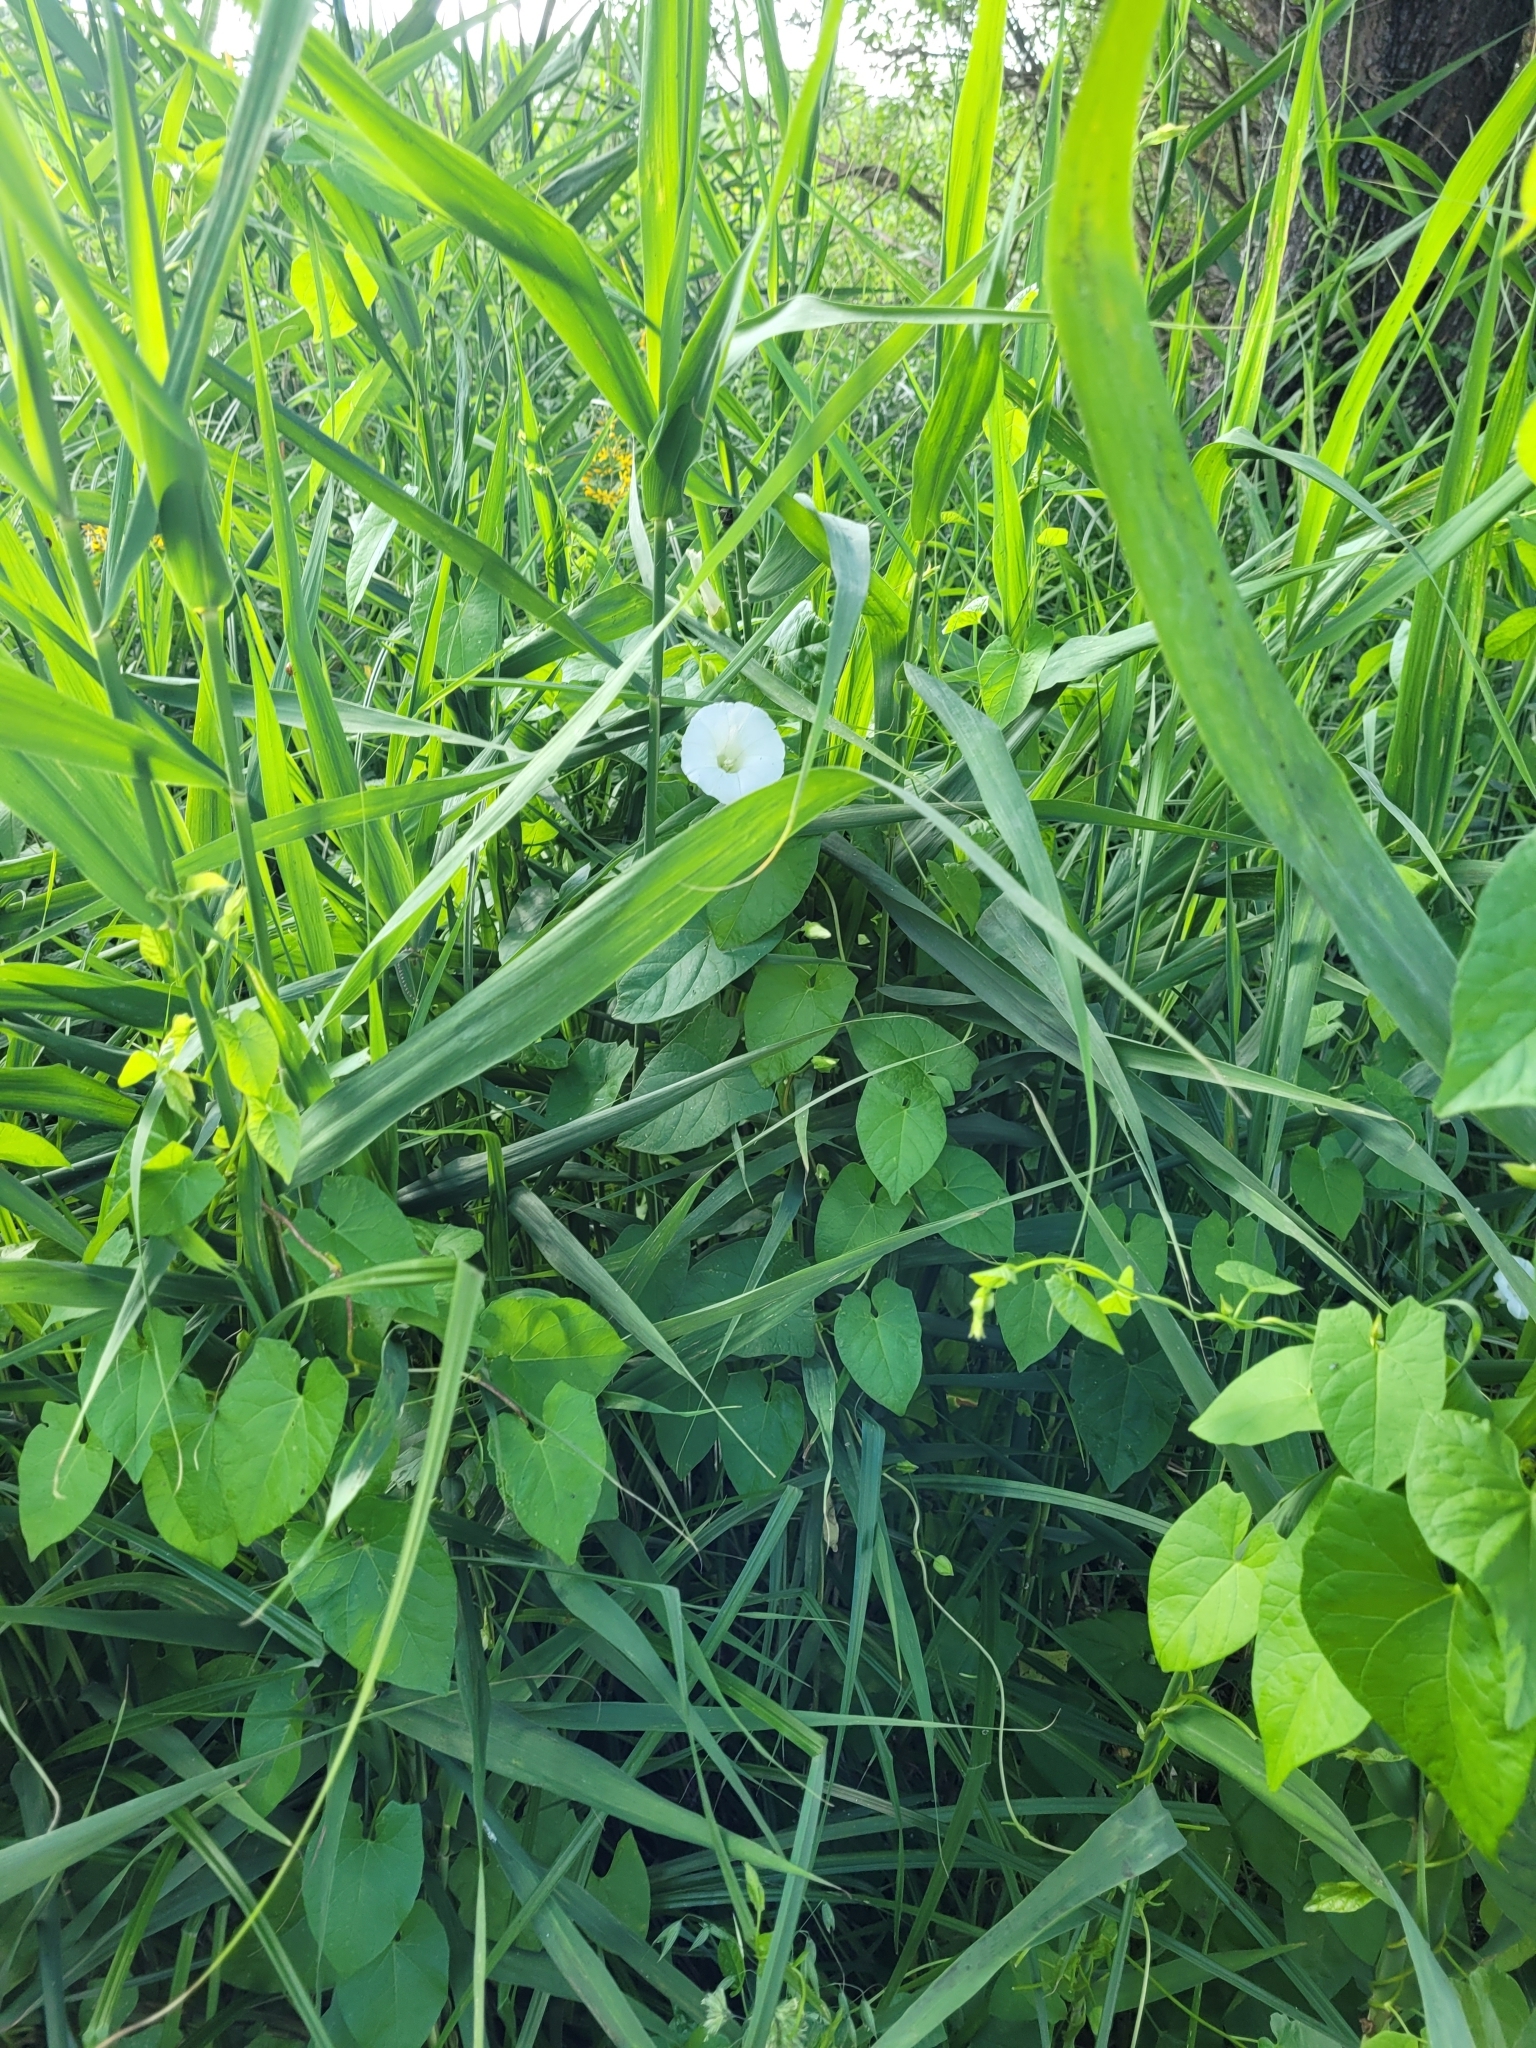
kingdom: Plantae
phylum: Tracheophyta
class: Magnoliopsida
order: Solanales
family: Convolvulaceae
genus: Calystegia
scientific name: Calystegia sepium
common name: Hedge bindweed
